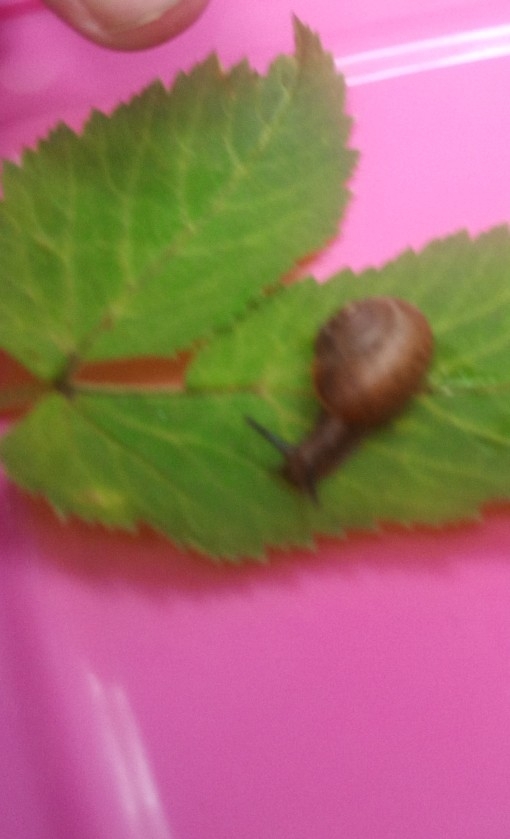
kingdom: Animalia
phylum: Mollusca
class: Gastropoda
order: Stylommatophora
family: Camaenidae
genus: Fruticicola
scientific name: Fruticicola fruticum
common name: Bush snail
